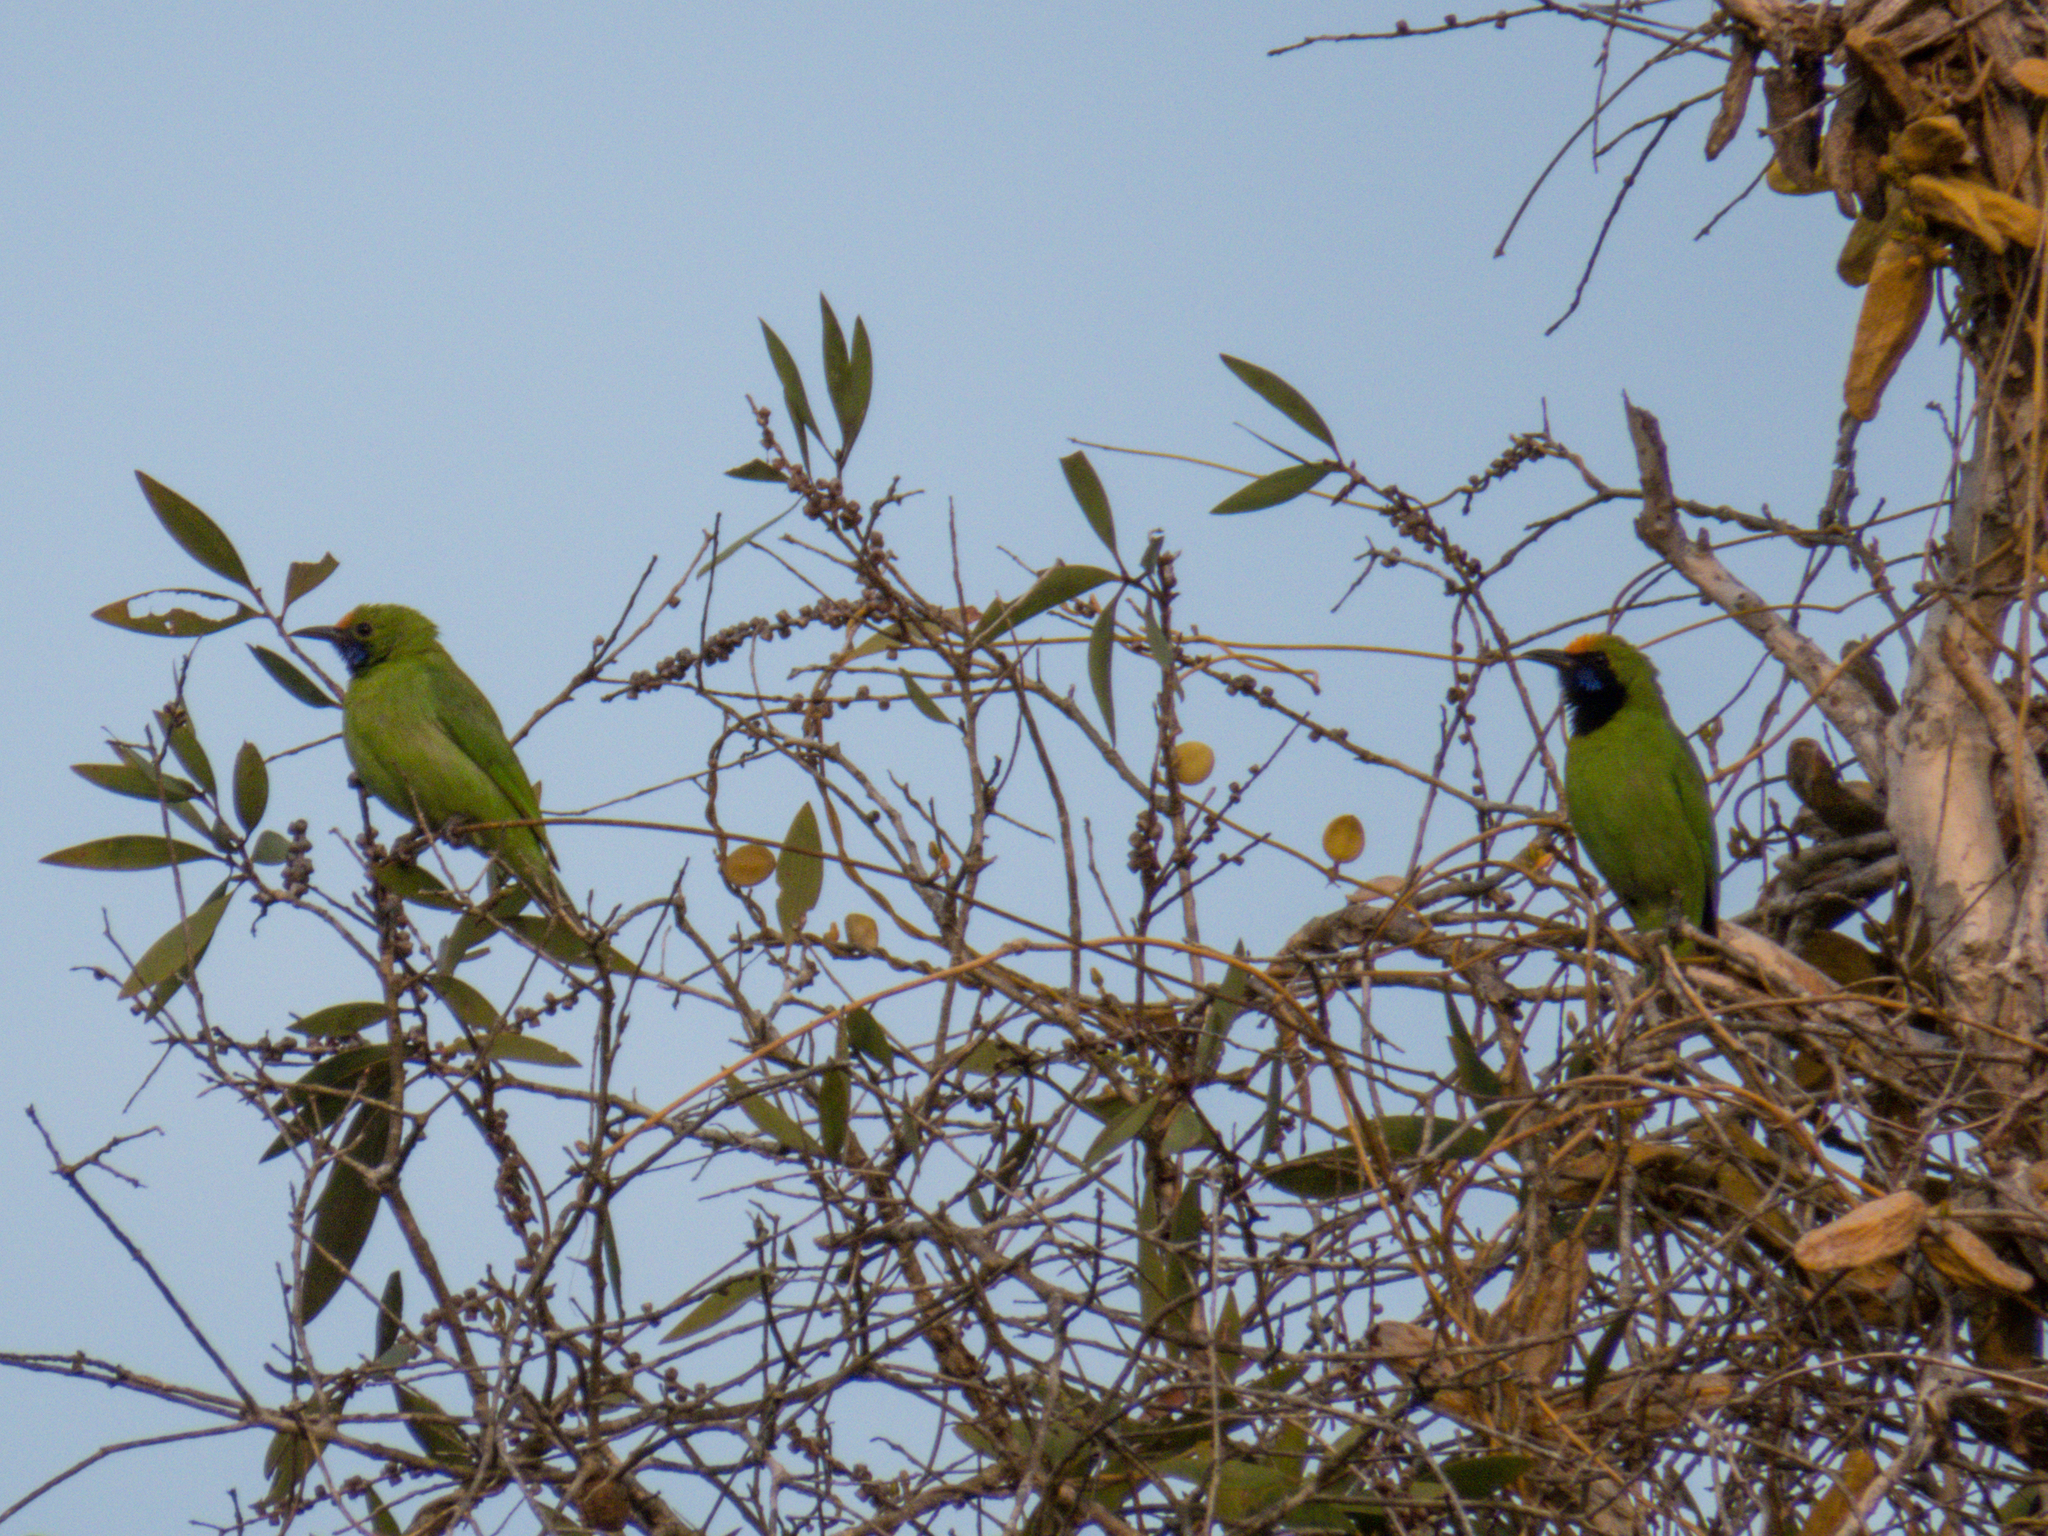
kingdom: Animalia
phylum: Chordata
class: Aves
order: Passeriformes
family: Chloropseidae
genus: Chloropsis
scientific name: Chloropsis aurifrons
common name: Golden-fronted leafbird
